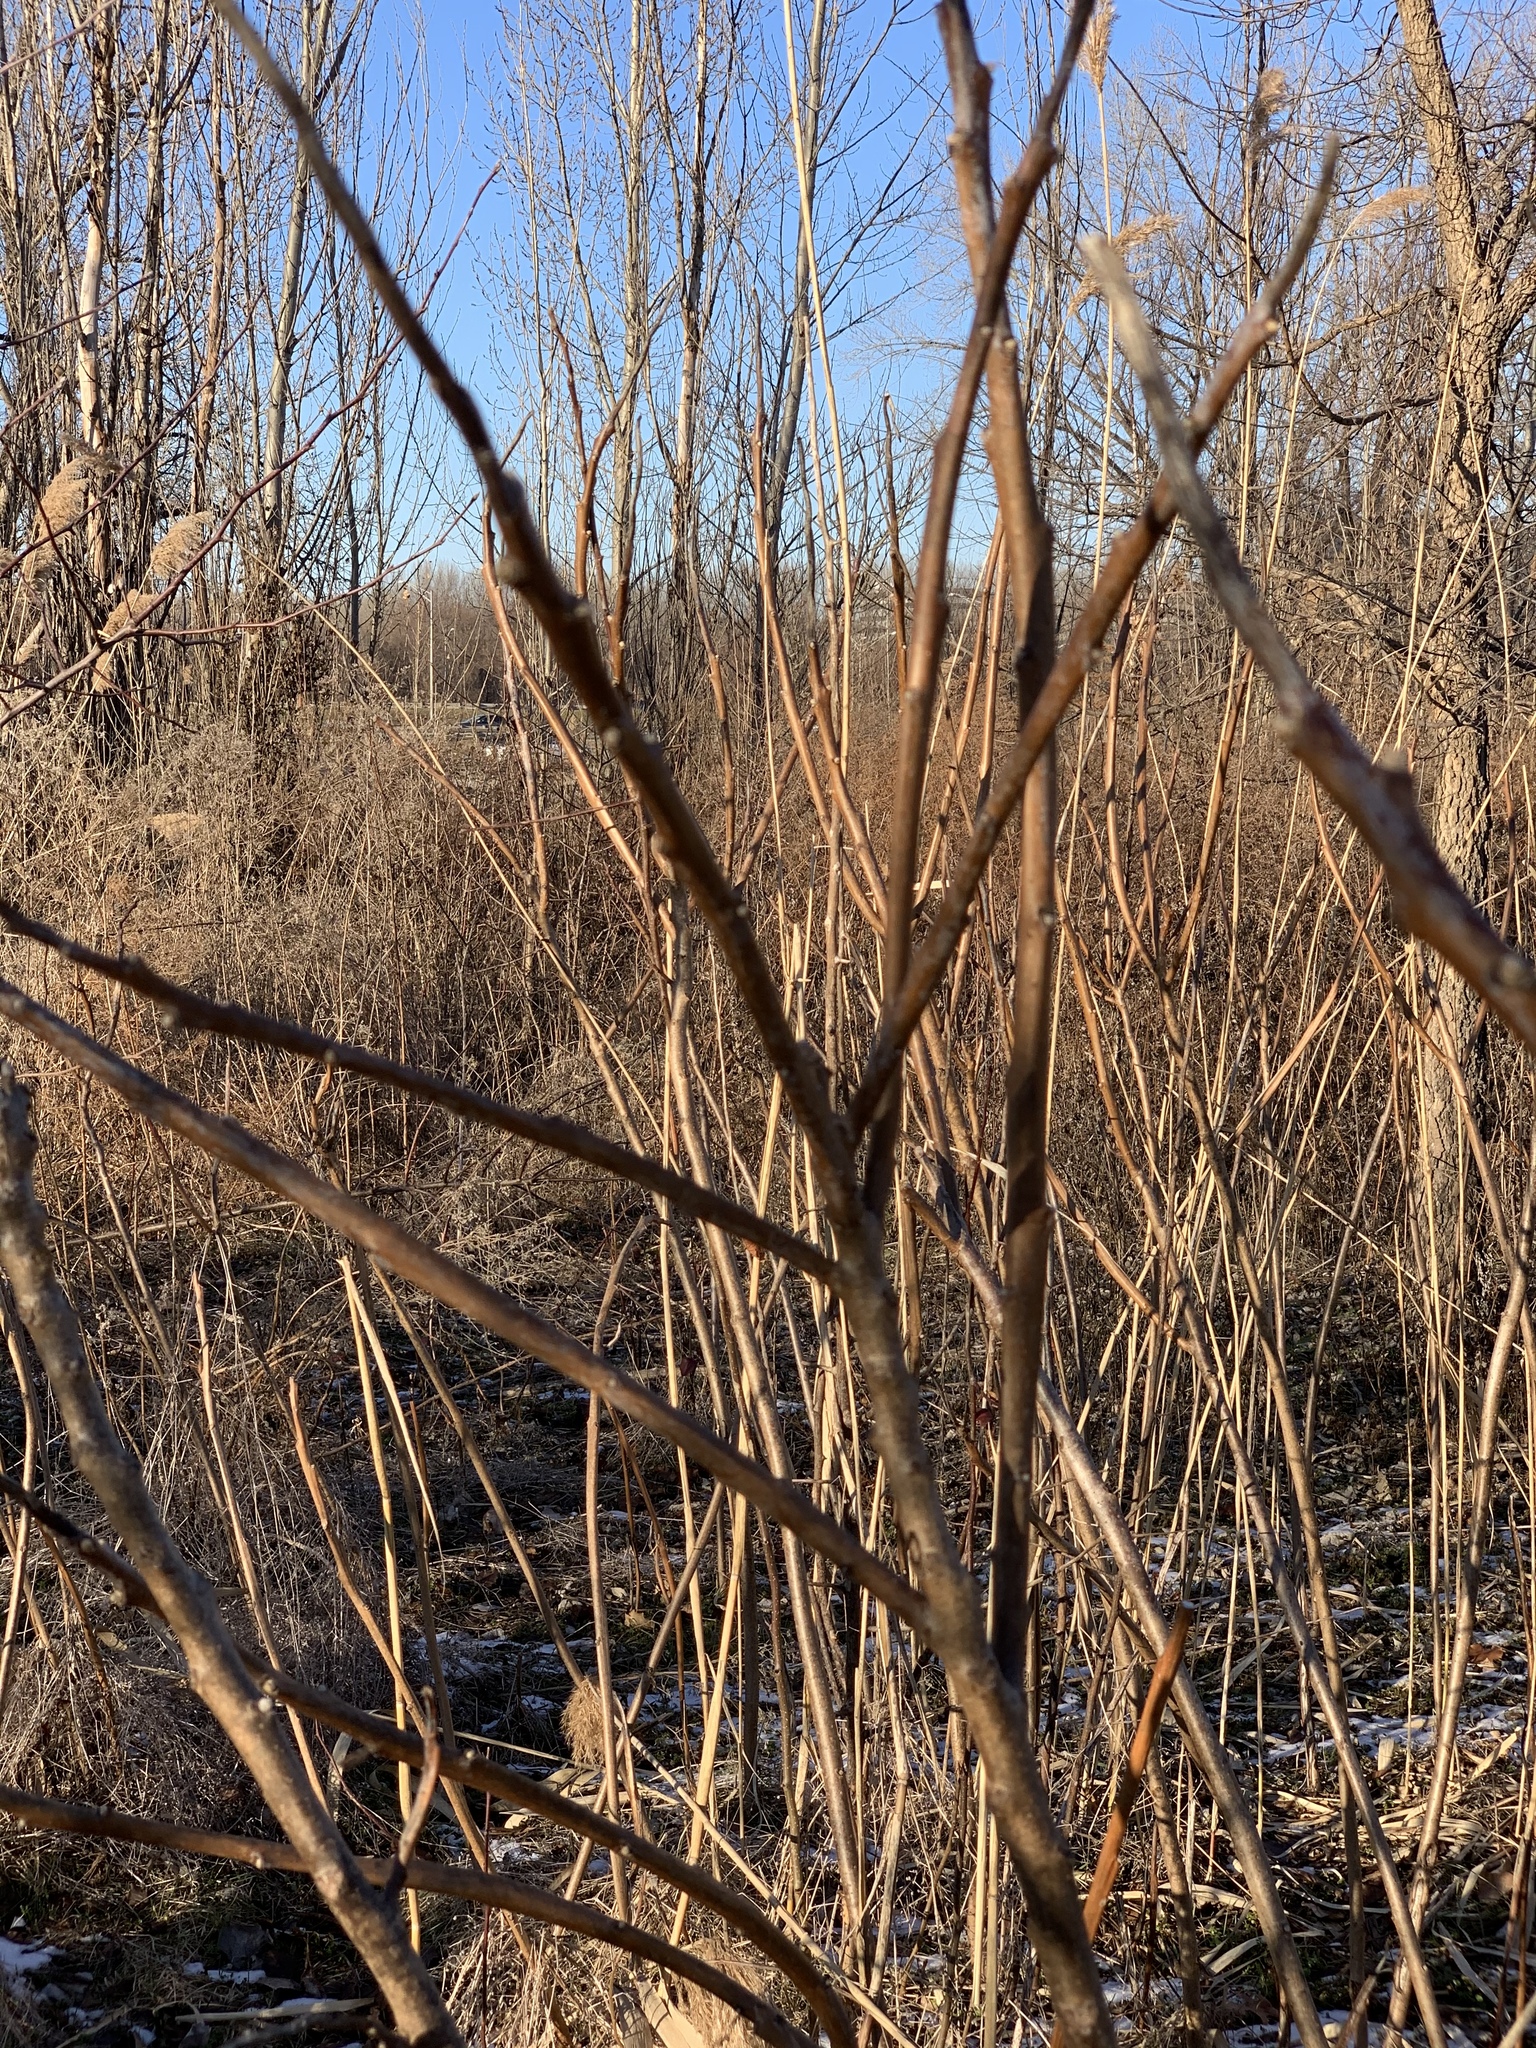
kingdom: Plantae
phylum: Tracheophyta
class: Magnoliopsida
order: Sapindales
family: Anacardiaceae
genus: Rhus
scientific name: Rhus glabra
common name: Scarlet sumac
